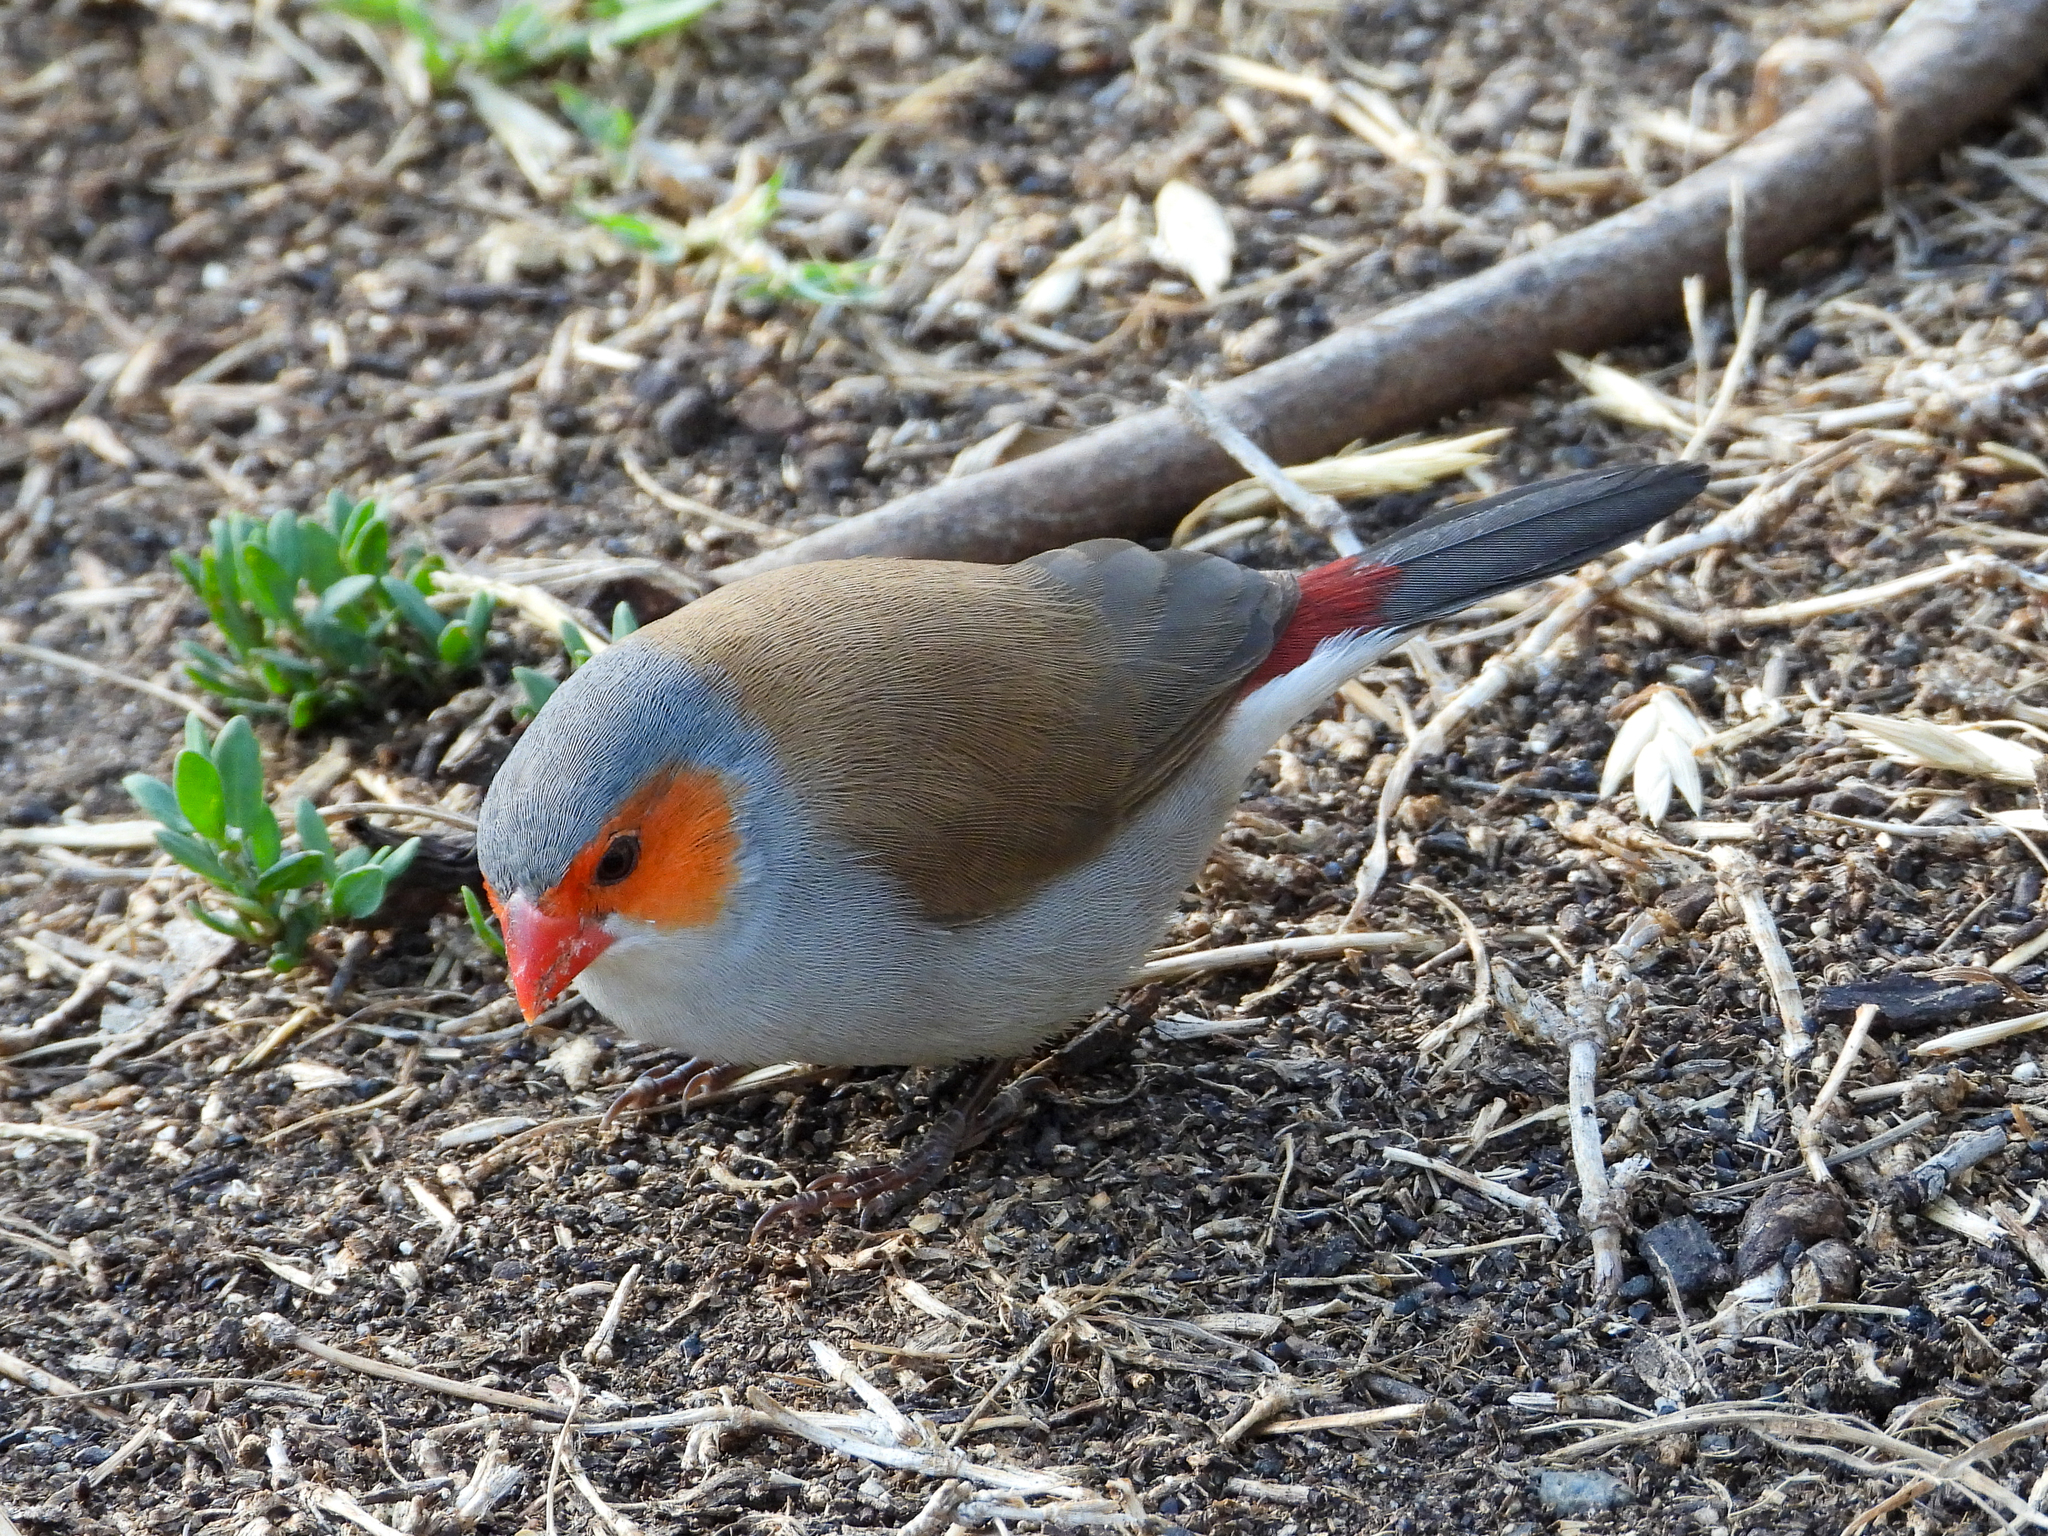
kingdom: Animalia
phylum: Chordata
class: Aves
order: Passeriformes
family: Estrildidae
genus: Estrilda
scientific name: Estrilda melpoda
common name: Orange-cheeked waxbill
